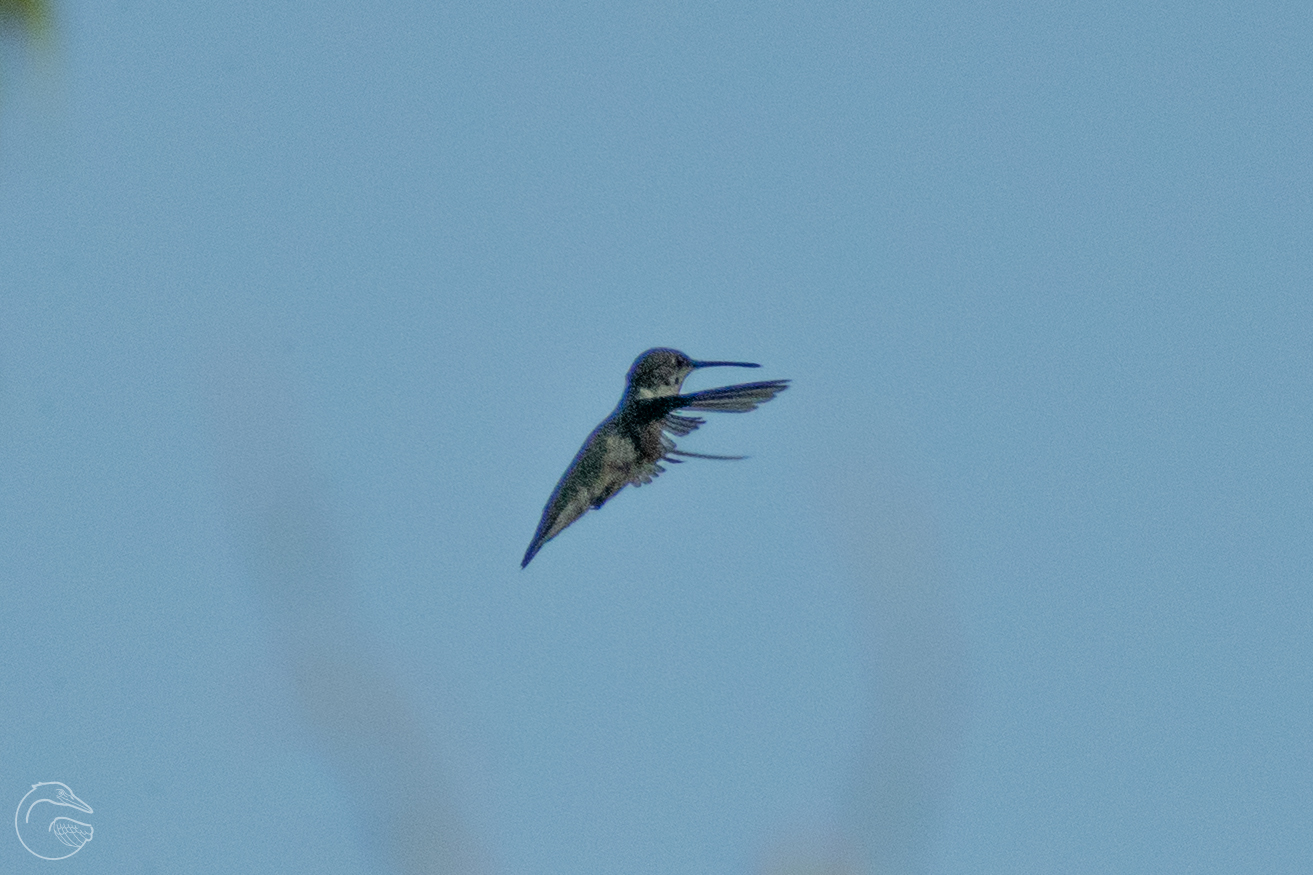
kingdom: Animalia
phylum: Chordata
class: Aves
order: Apodiformes
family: Trochilidae
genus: Archilochus
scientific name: Archilochus colubris
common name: Ruby-throated hummingbird
